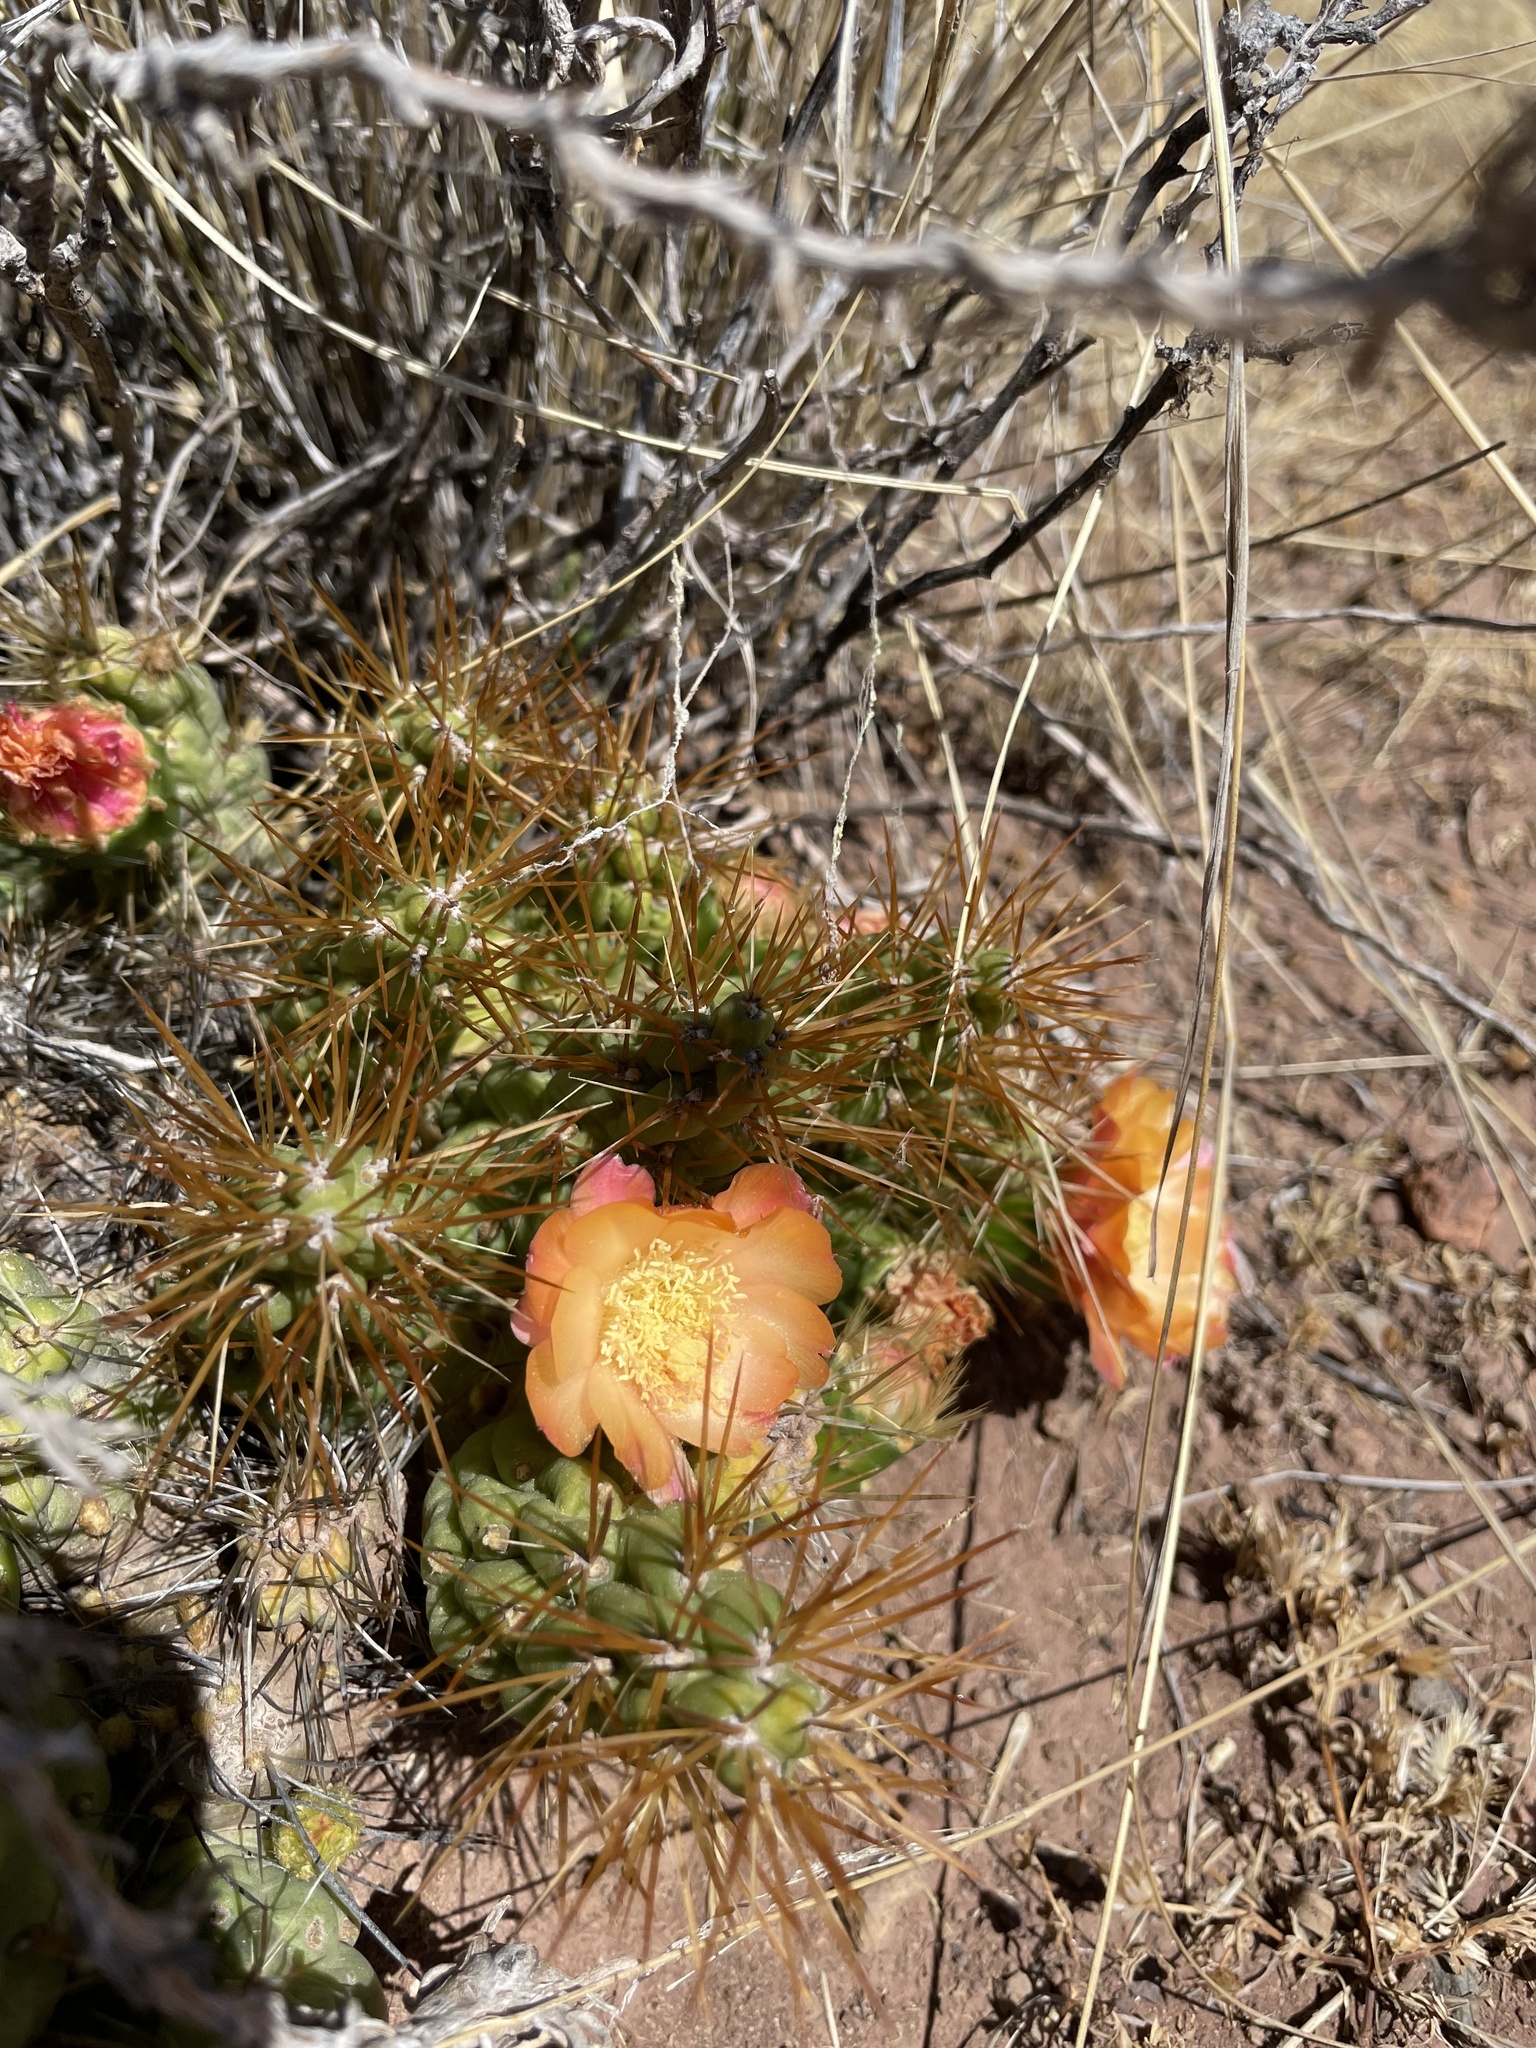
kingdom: Plantae
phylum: Tracheophyta
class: Magnoliopsida
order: Caryophyllales
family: Cactaceae
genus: Cumulopuntia
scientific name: Cumulopuntia boliviana
